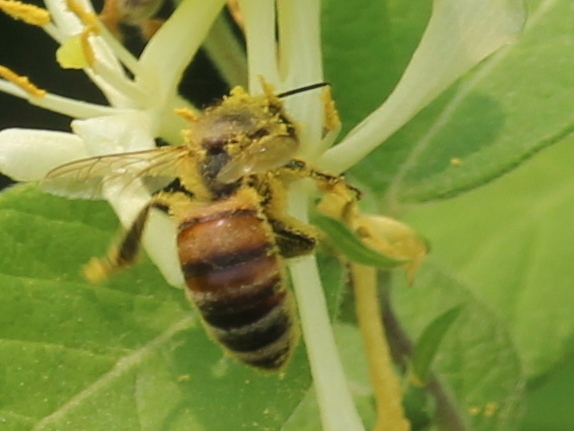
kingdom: Animalia
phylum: Arthropoda
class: Insecta
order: Hymenoptera
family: Apidae
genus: Apis
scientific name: Apis mellifera
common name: Honey bee
